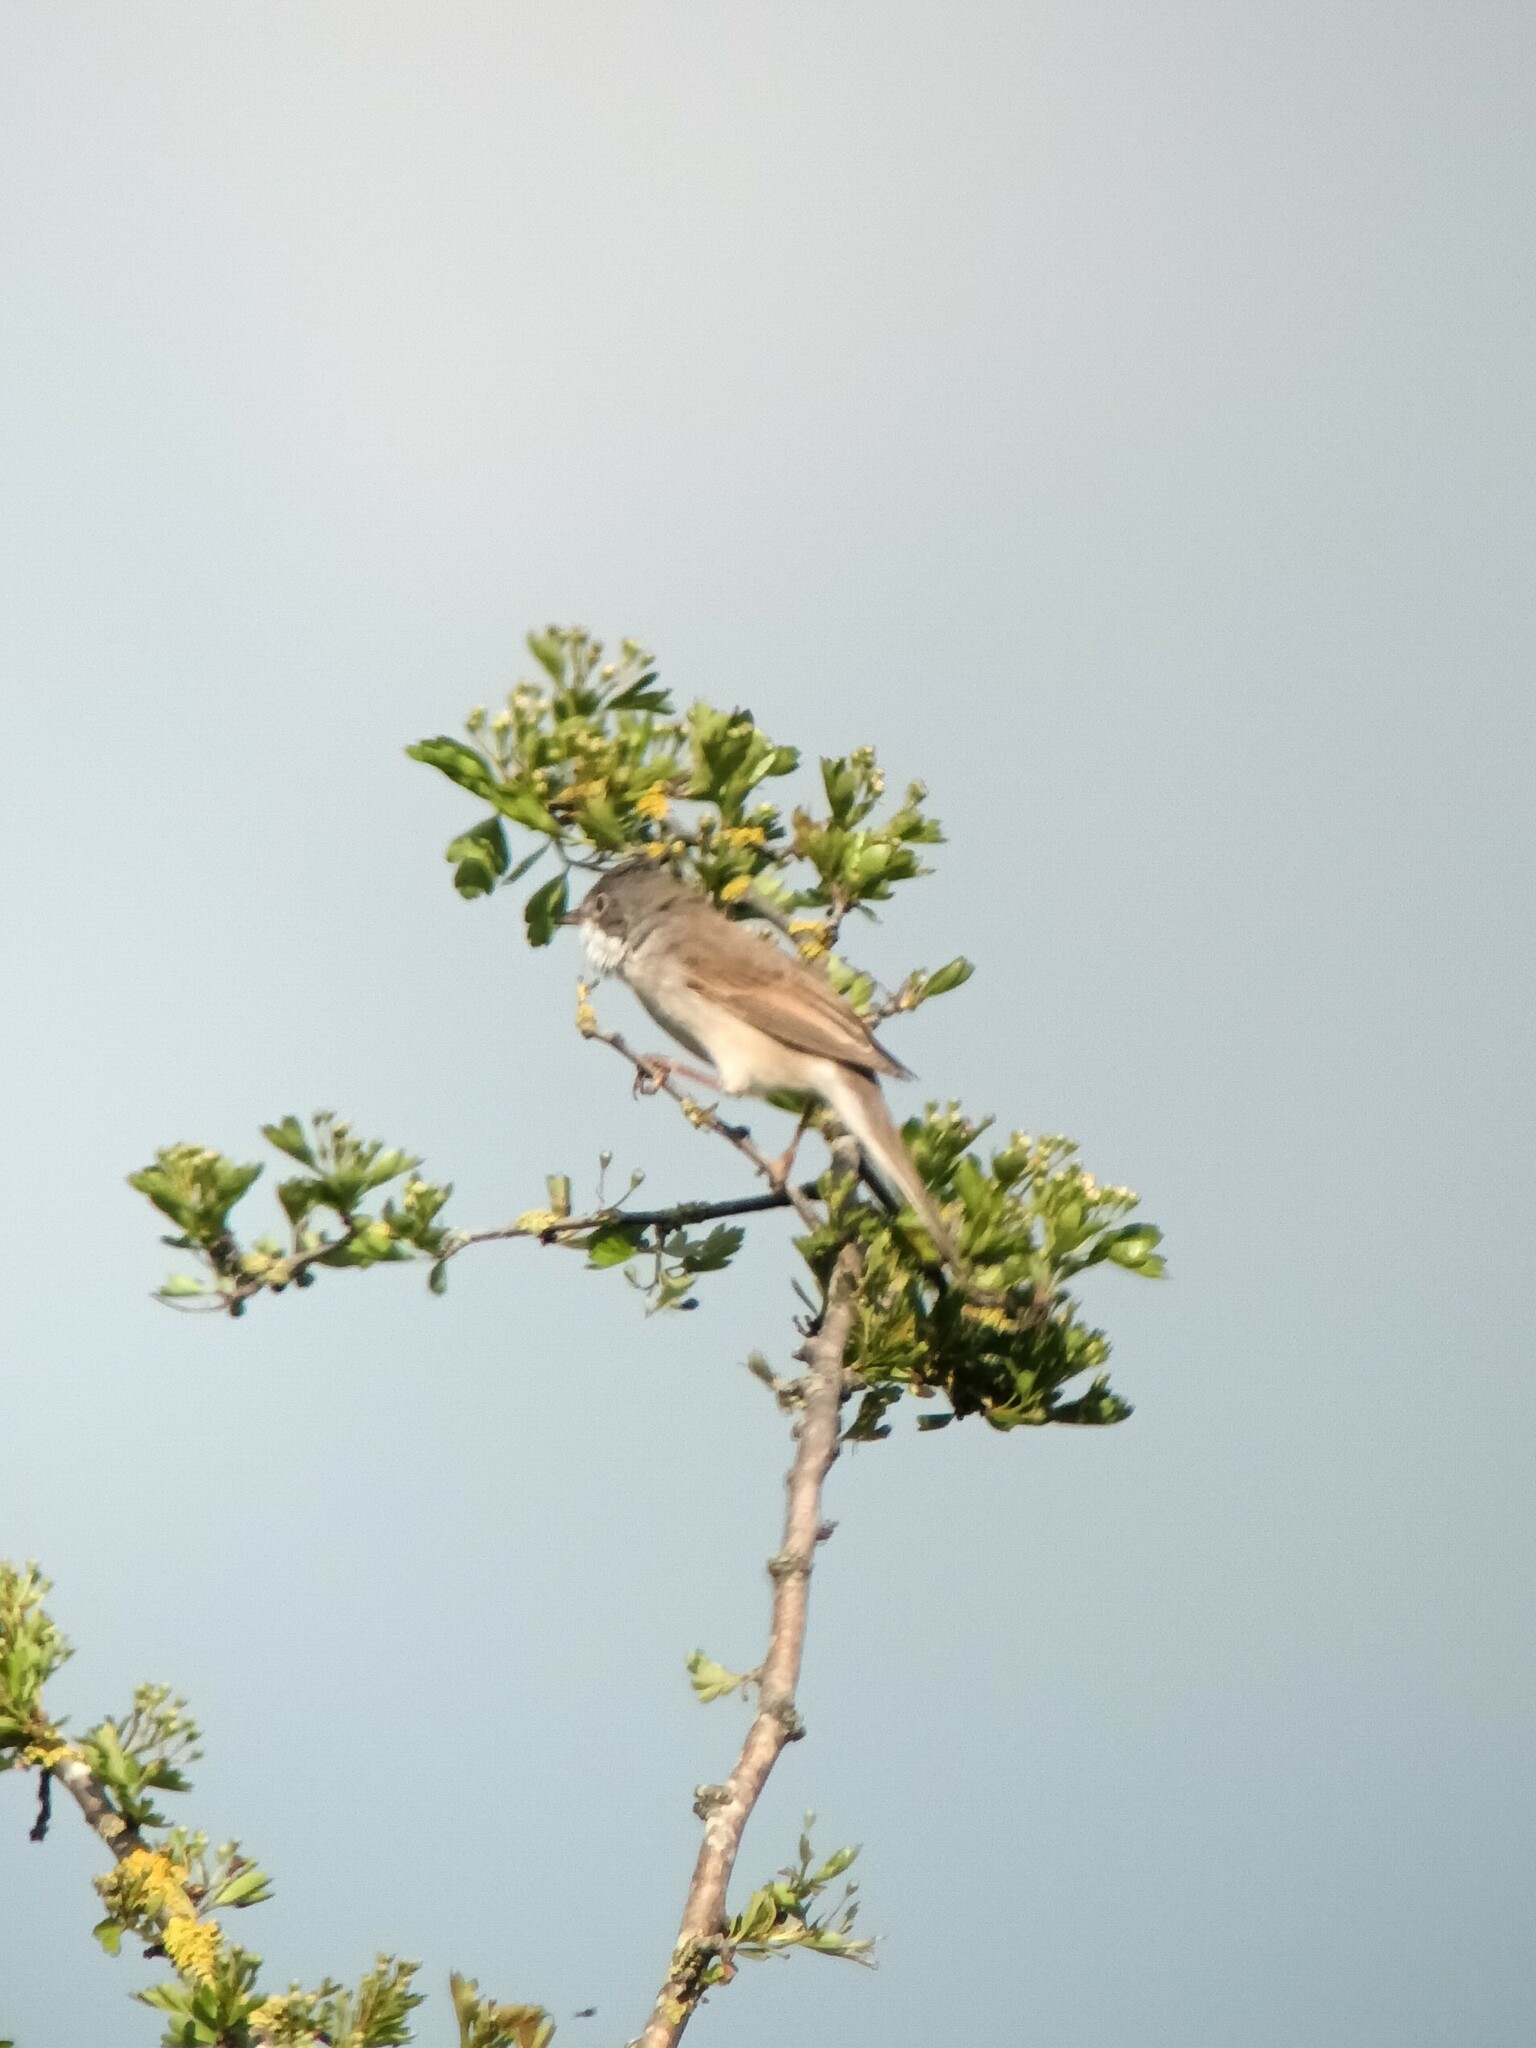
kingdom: Animalia
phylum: Chordata
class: Aves
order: Passeriformes
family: Sylviidae
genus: Sylvia
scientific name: Sylvia communis
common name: Common whitethroat
